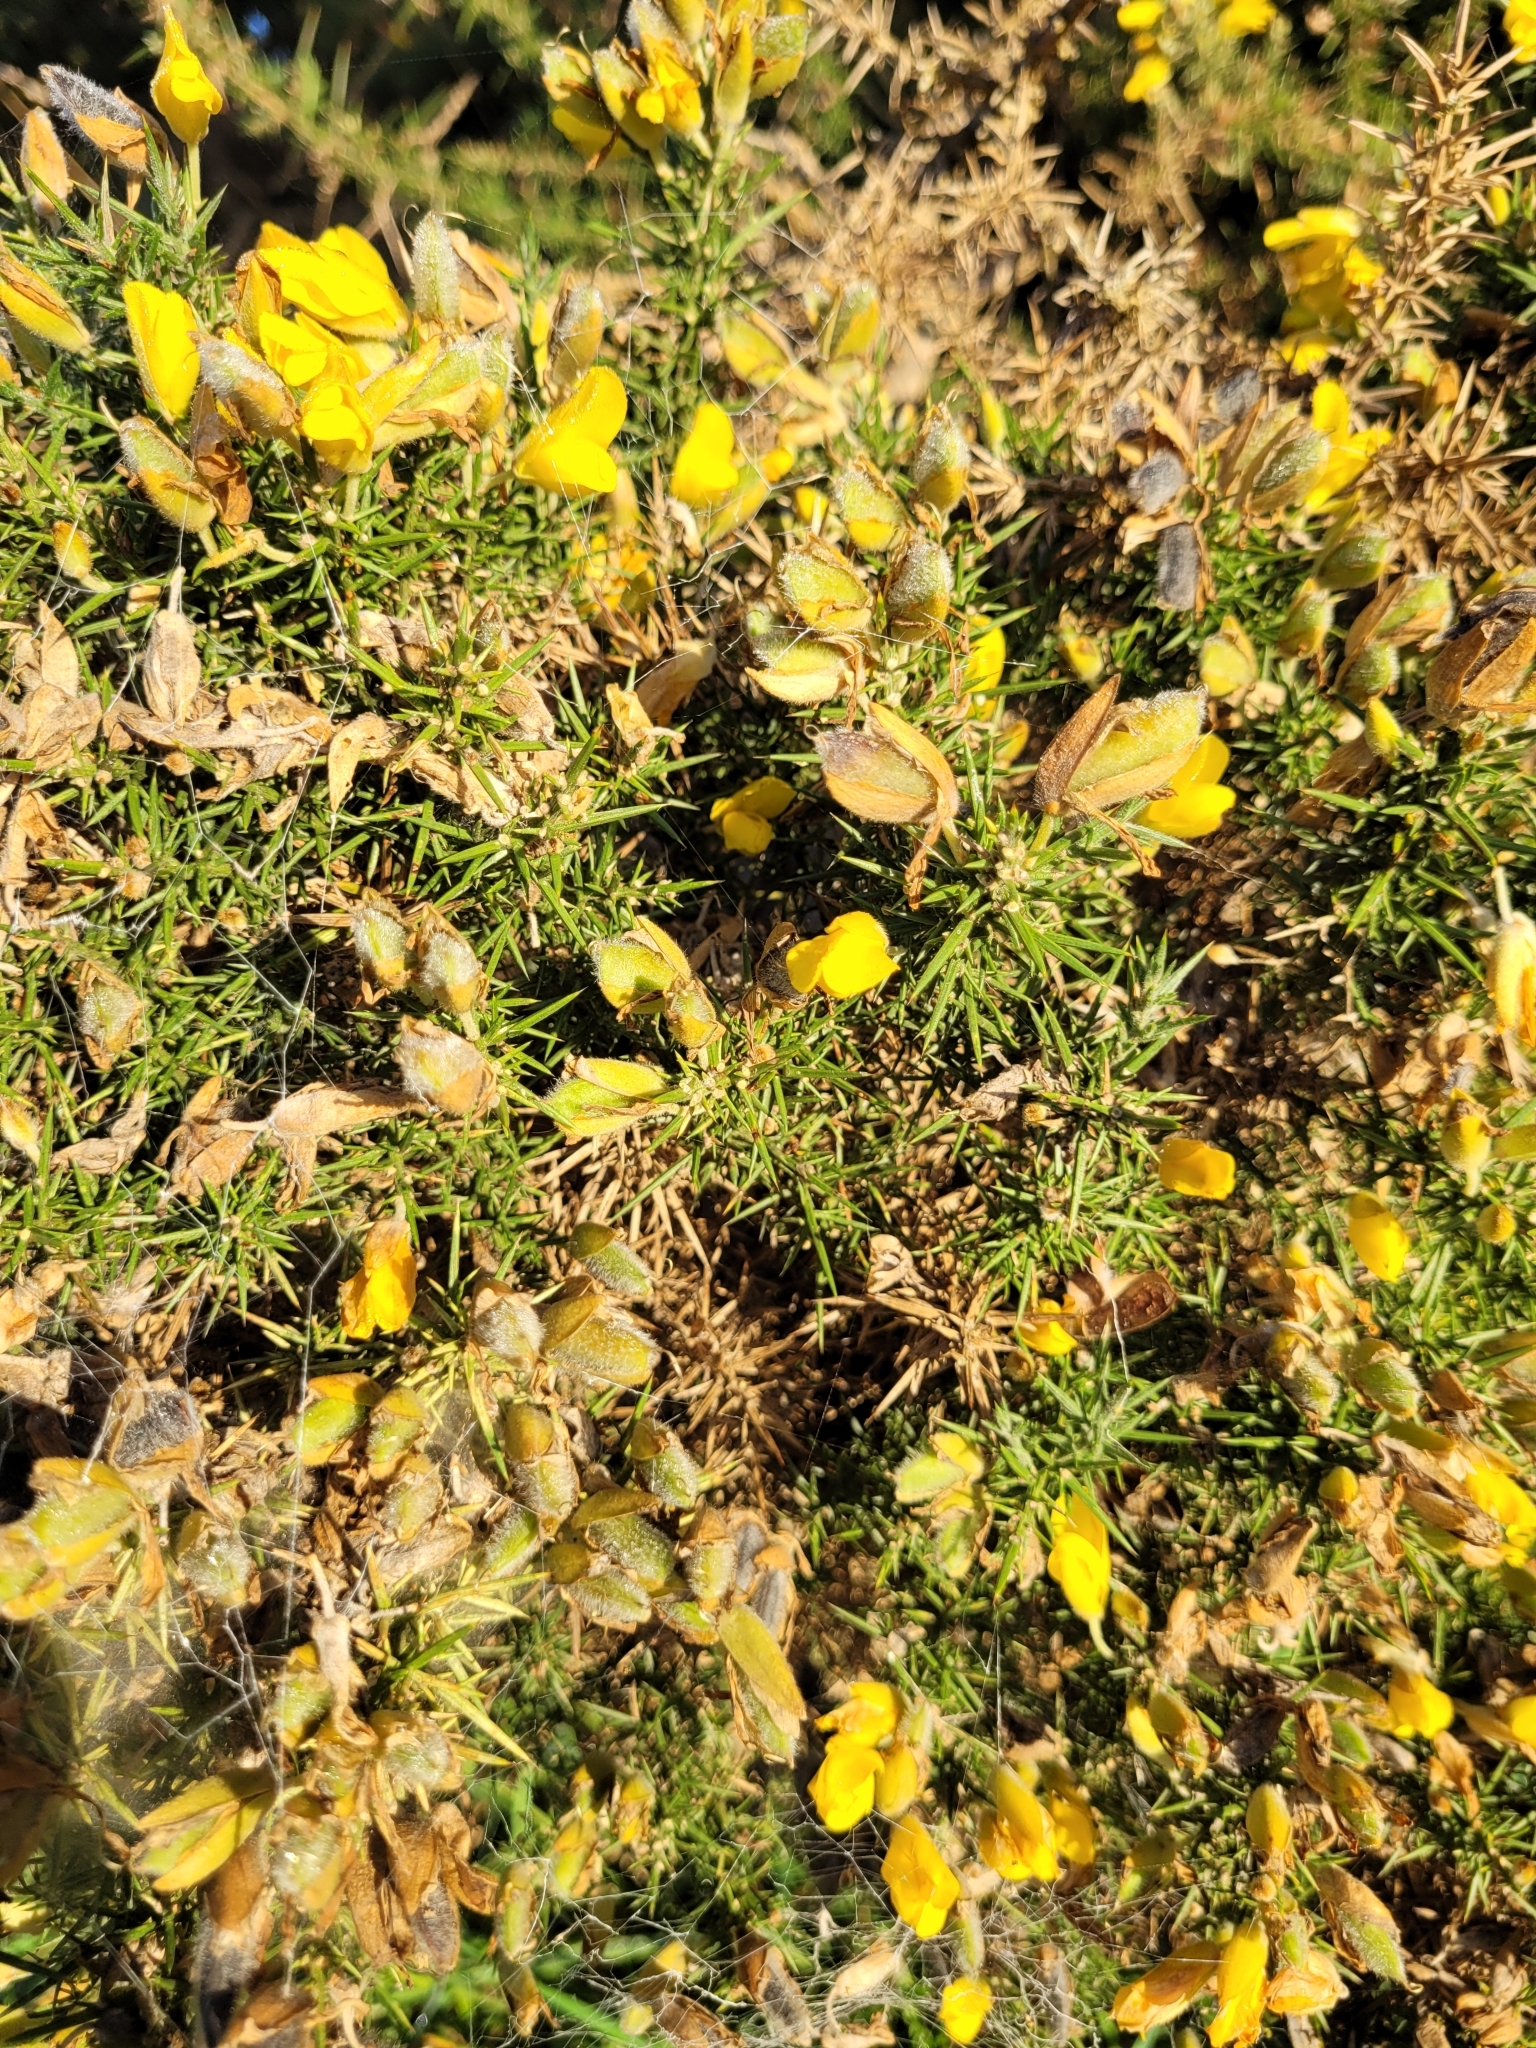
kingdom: Plantae
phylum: Tracheophyta
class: Magnoliopsida
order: Fabales
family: Fabaceae
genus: Ulex
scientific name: Ulex europaeus
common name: Common gorse
